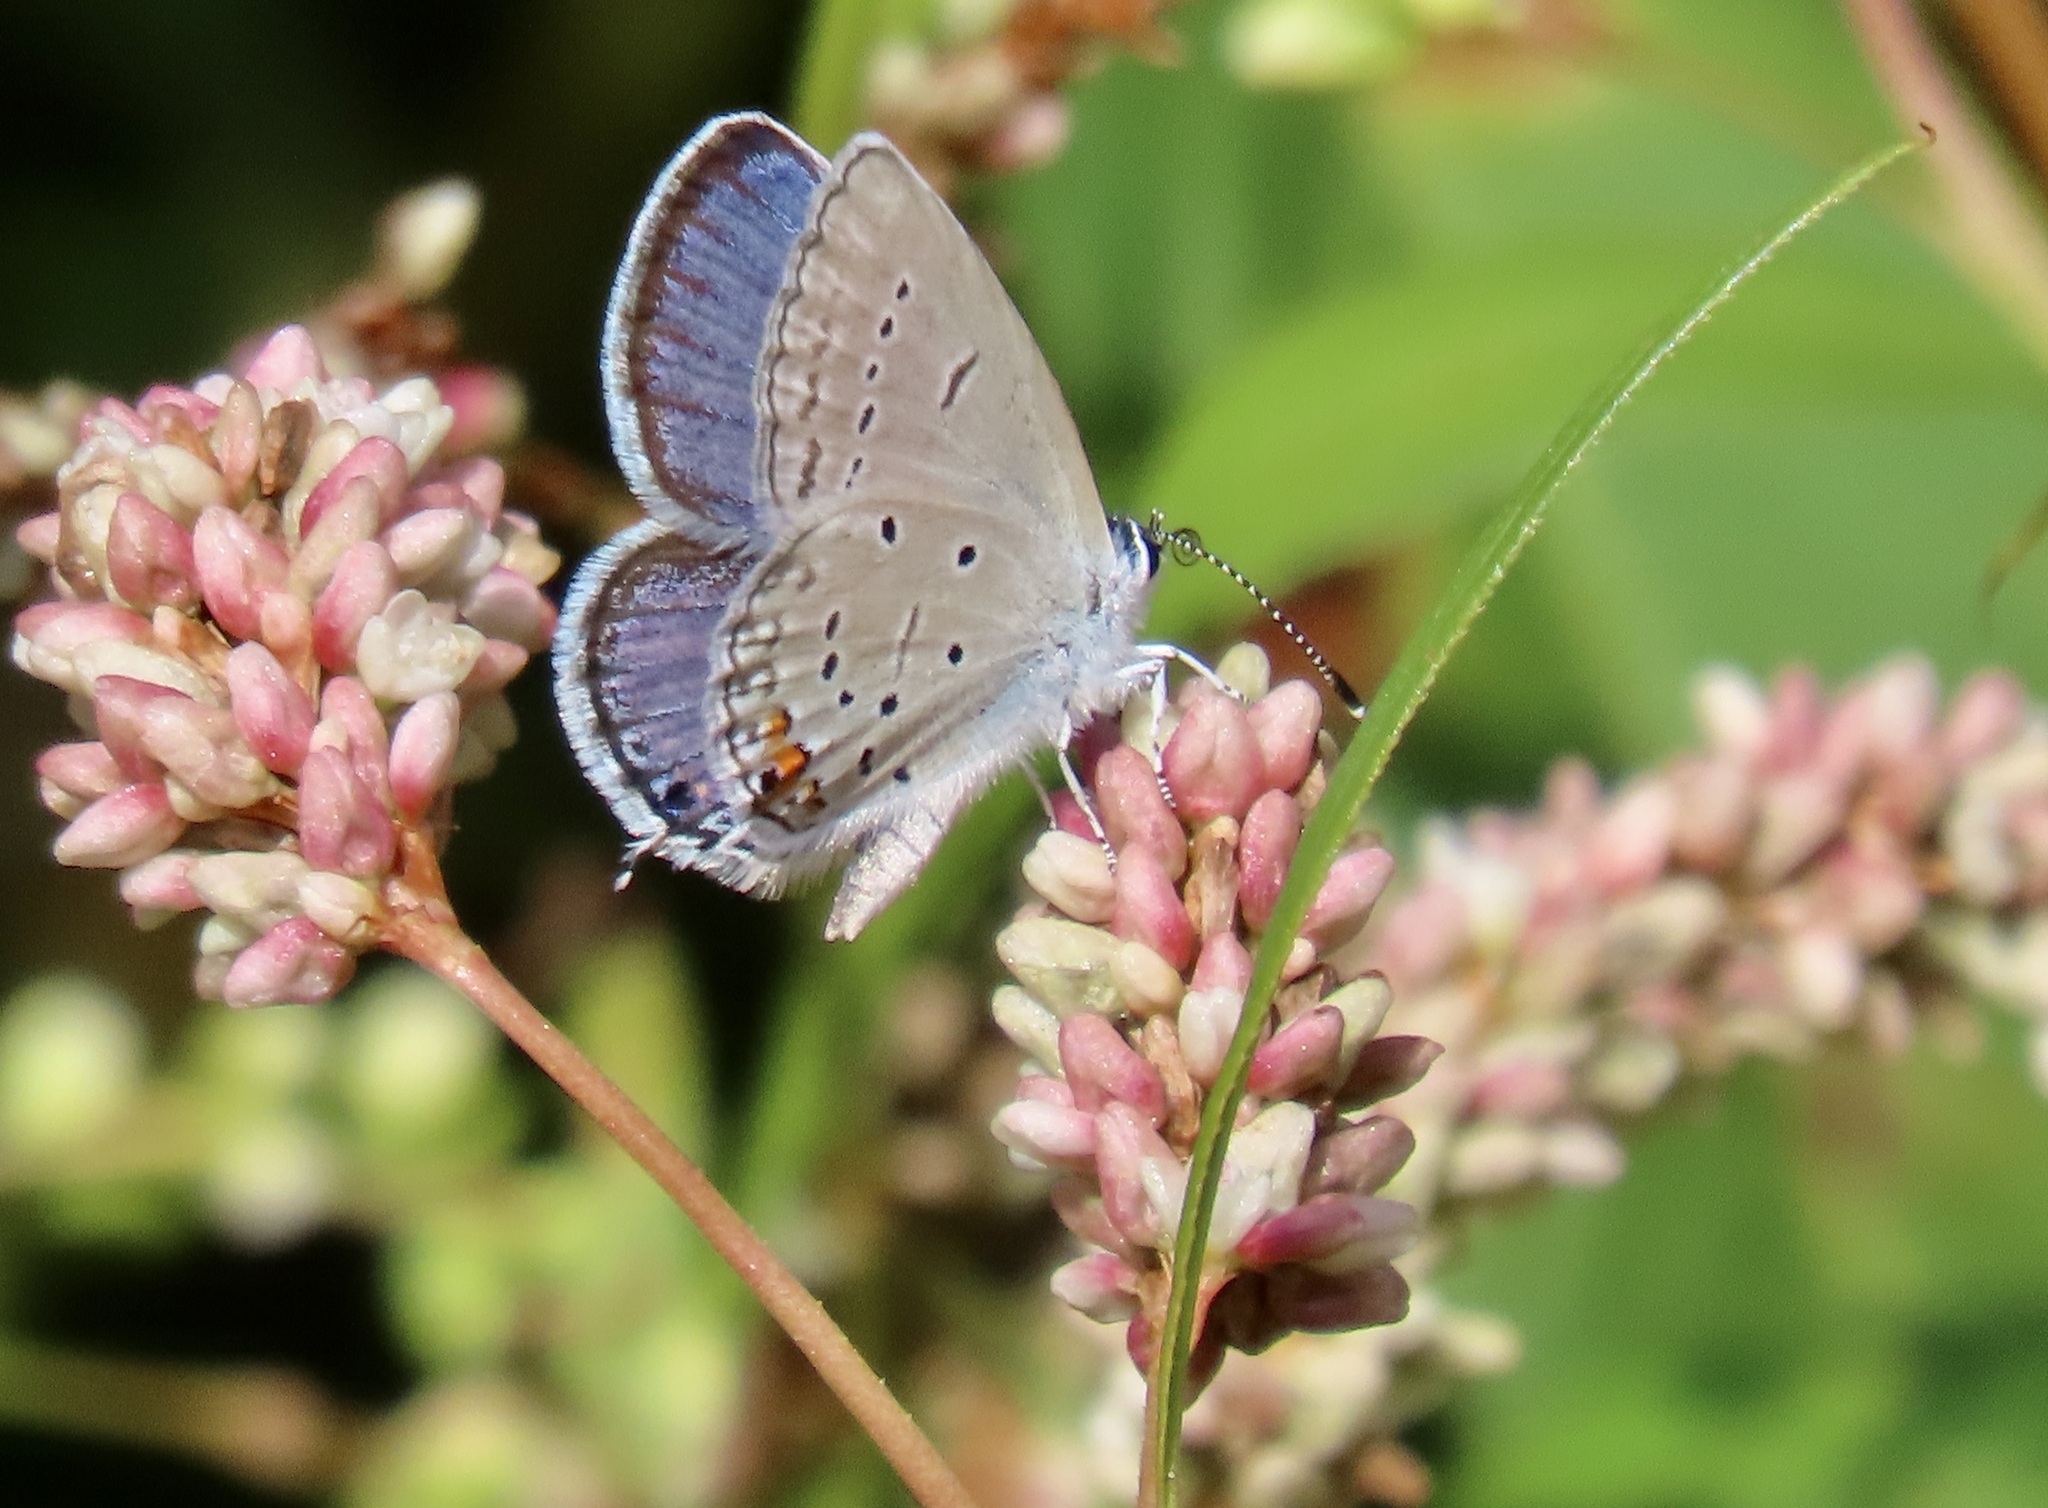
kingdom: Animalia
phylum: Arthropoda
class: Insecta
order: Lepidoptera
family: Lycaenidae
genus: Elkalyce
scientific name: Elkalyce comyntas
